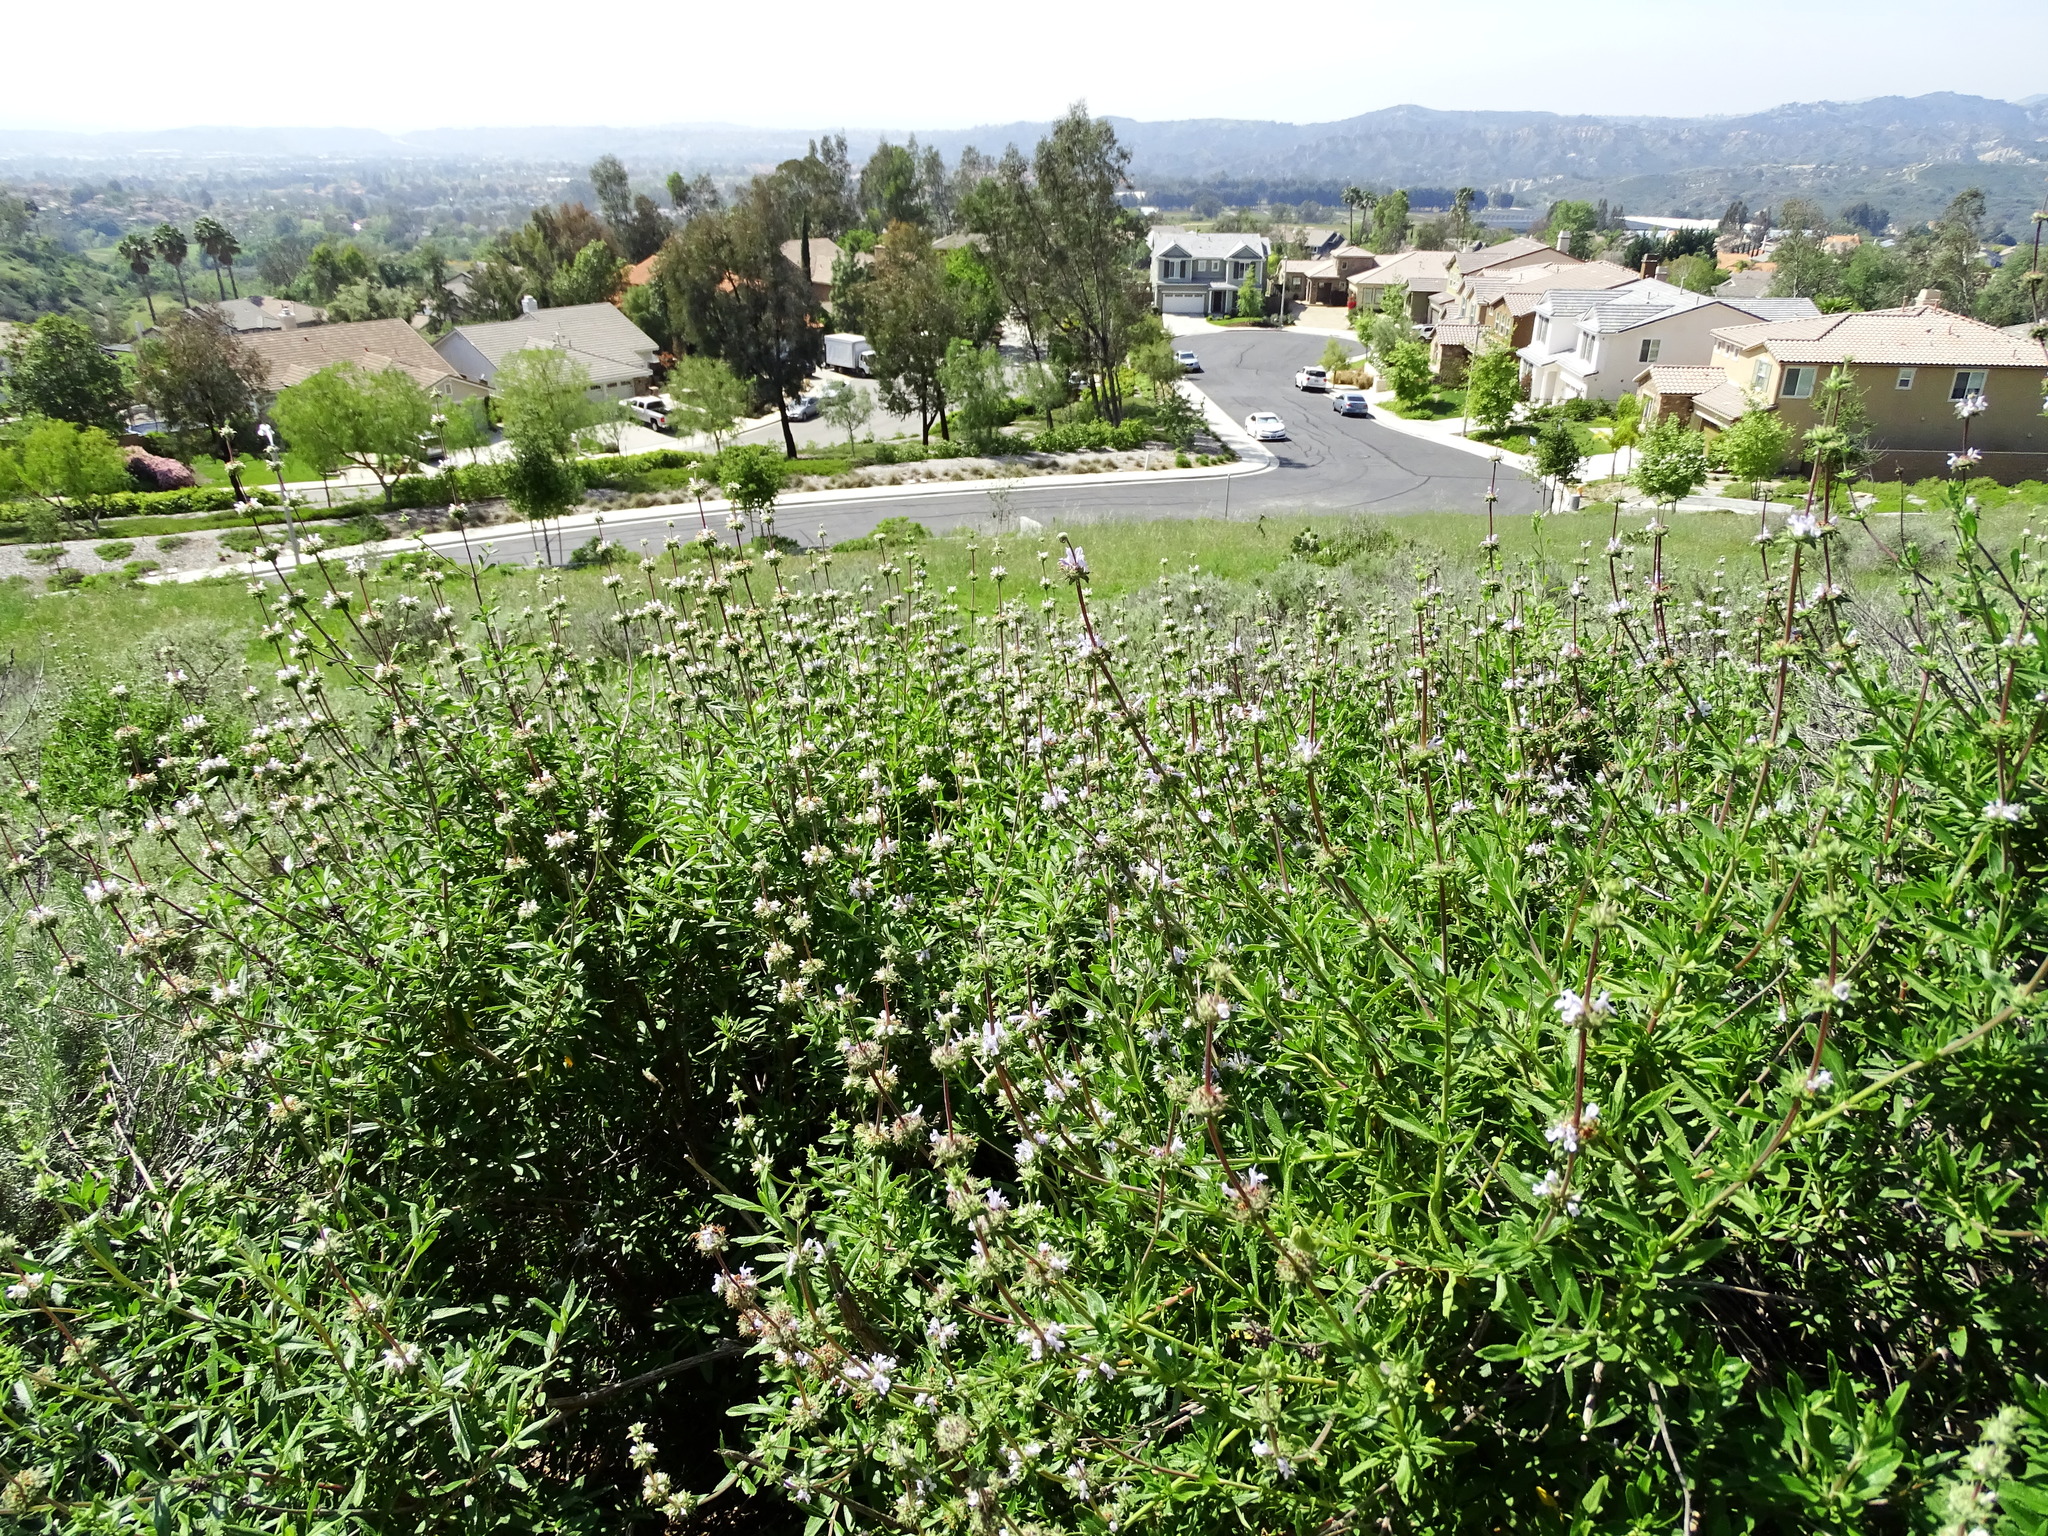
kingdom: Plantae
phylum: Tracheophyta
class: Magnoliopsida
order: Lamiales
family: Lamiaceae
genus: Salvia
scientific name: Salvia mellifera
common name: Black sage
